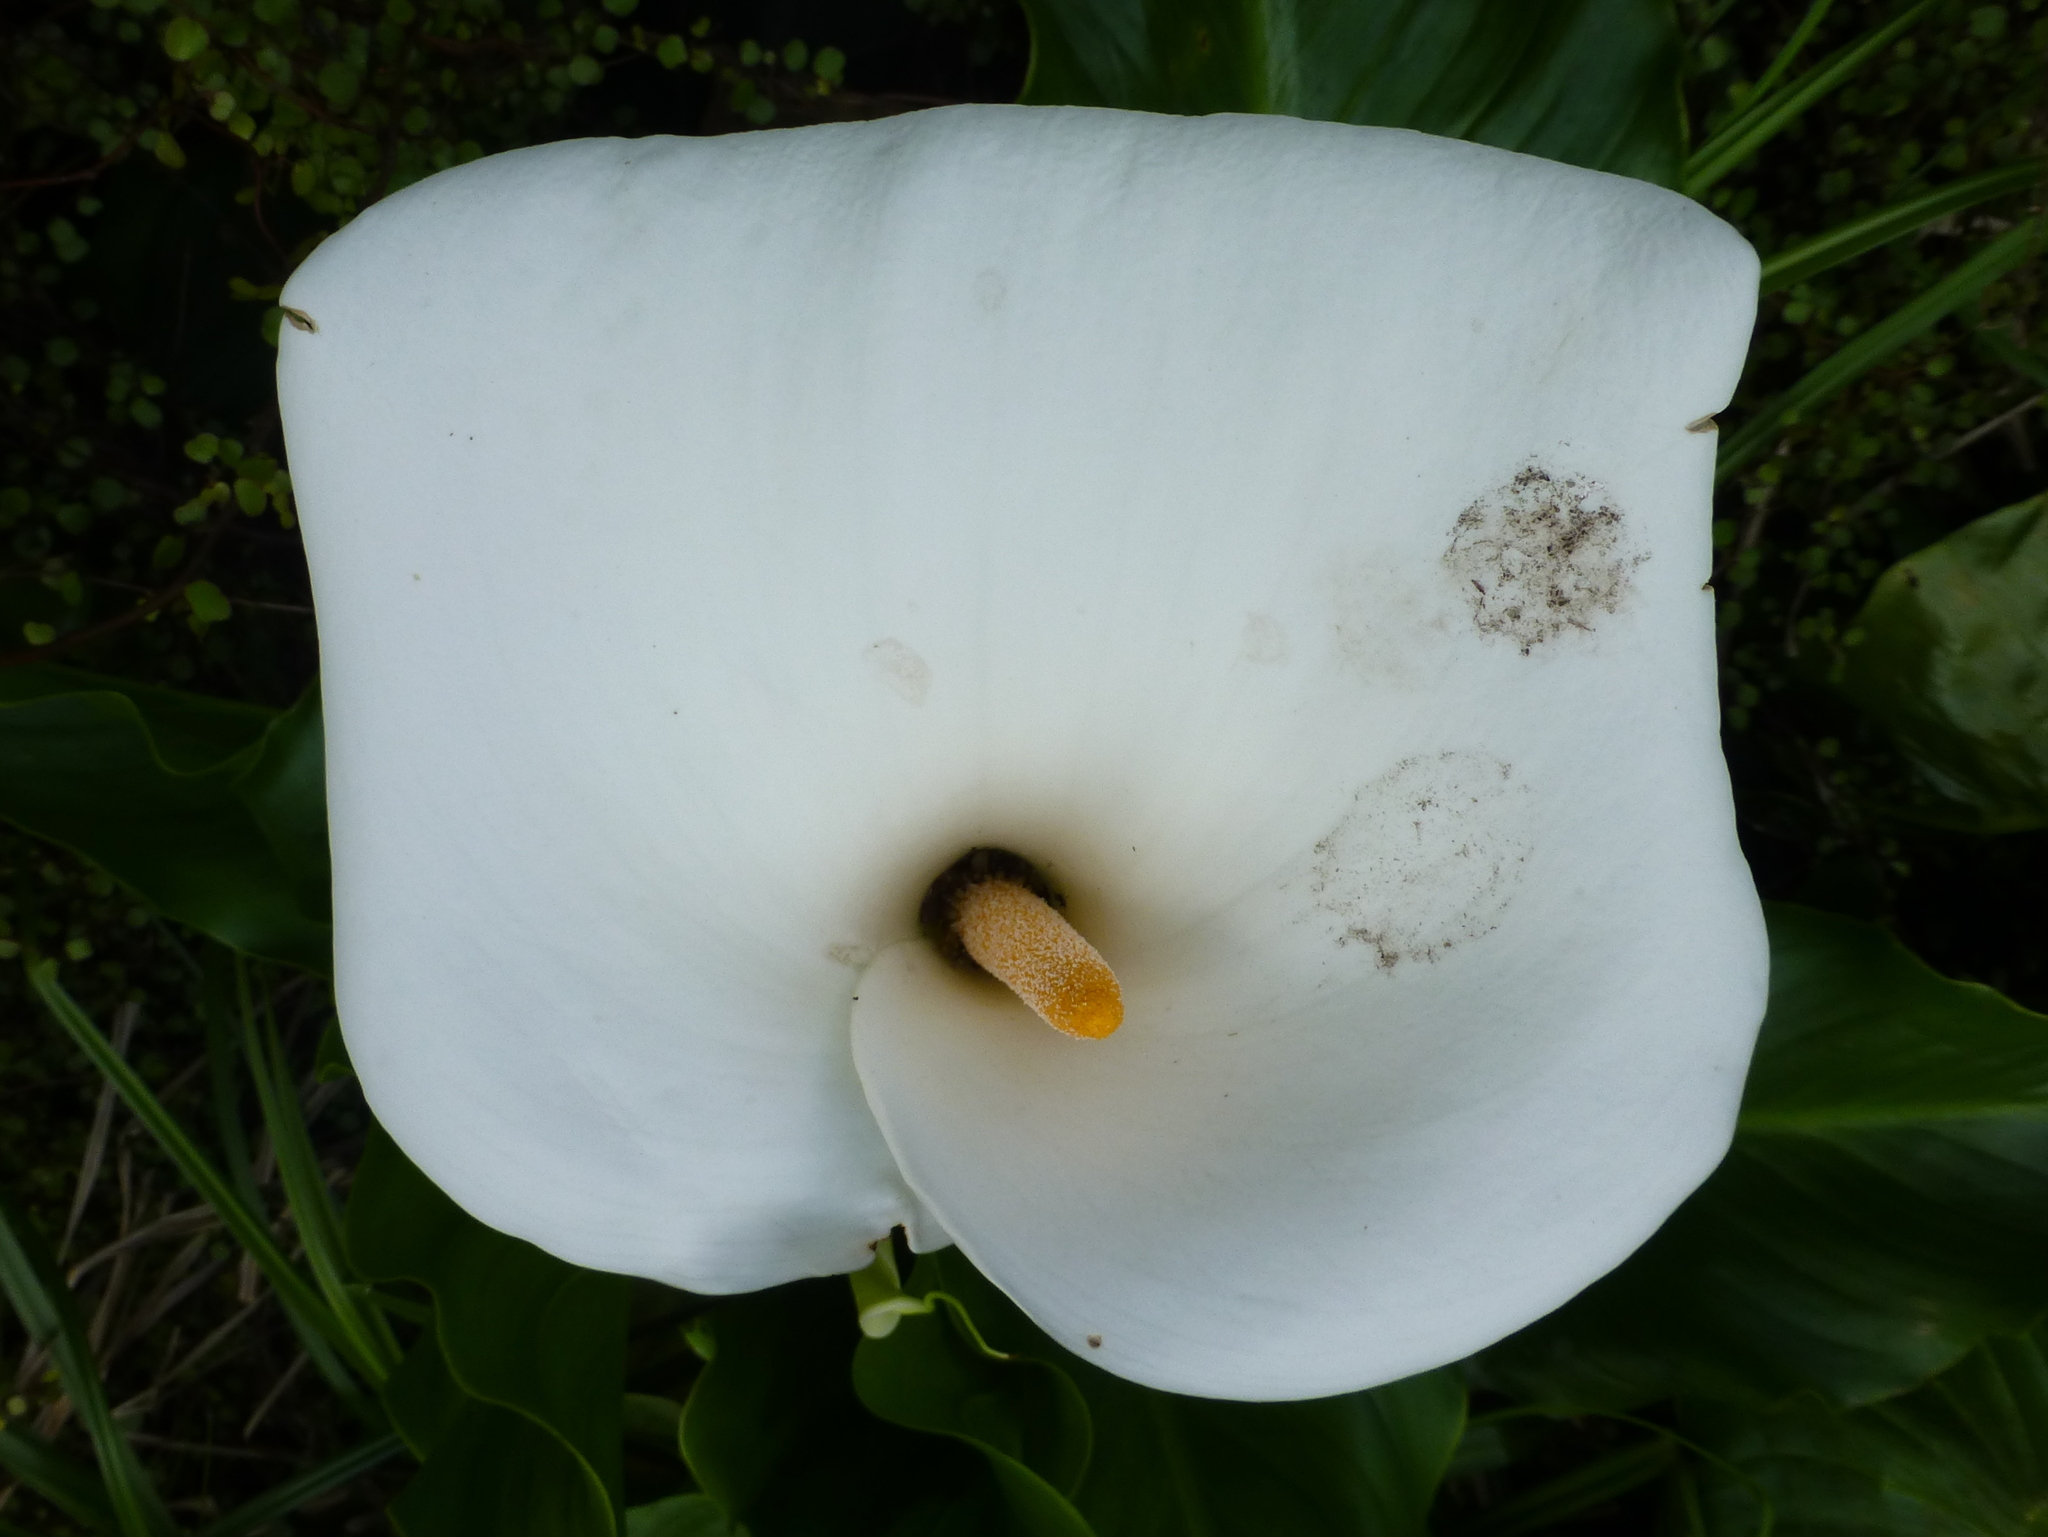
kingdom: Plantae
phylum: Tracheophyta
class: Liliopsida
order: Alismatales
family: Araceae
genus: Zantedeschia
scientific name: Zantedeschia aethiopica
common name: Altar-lily
